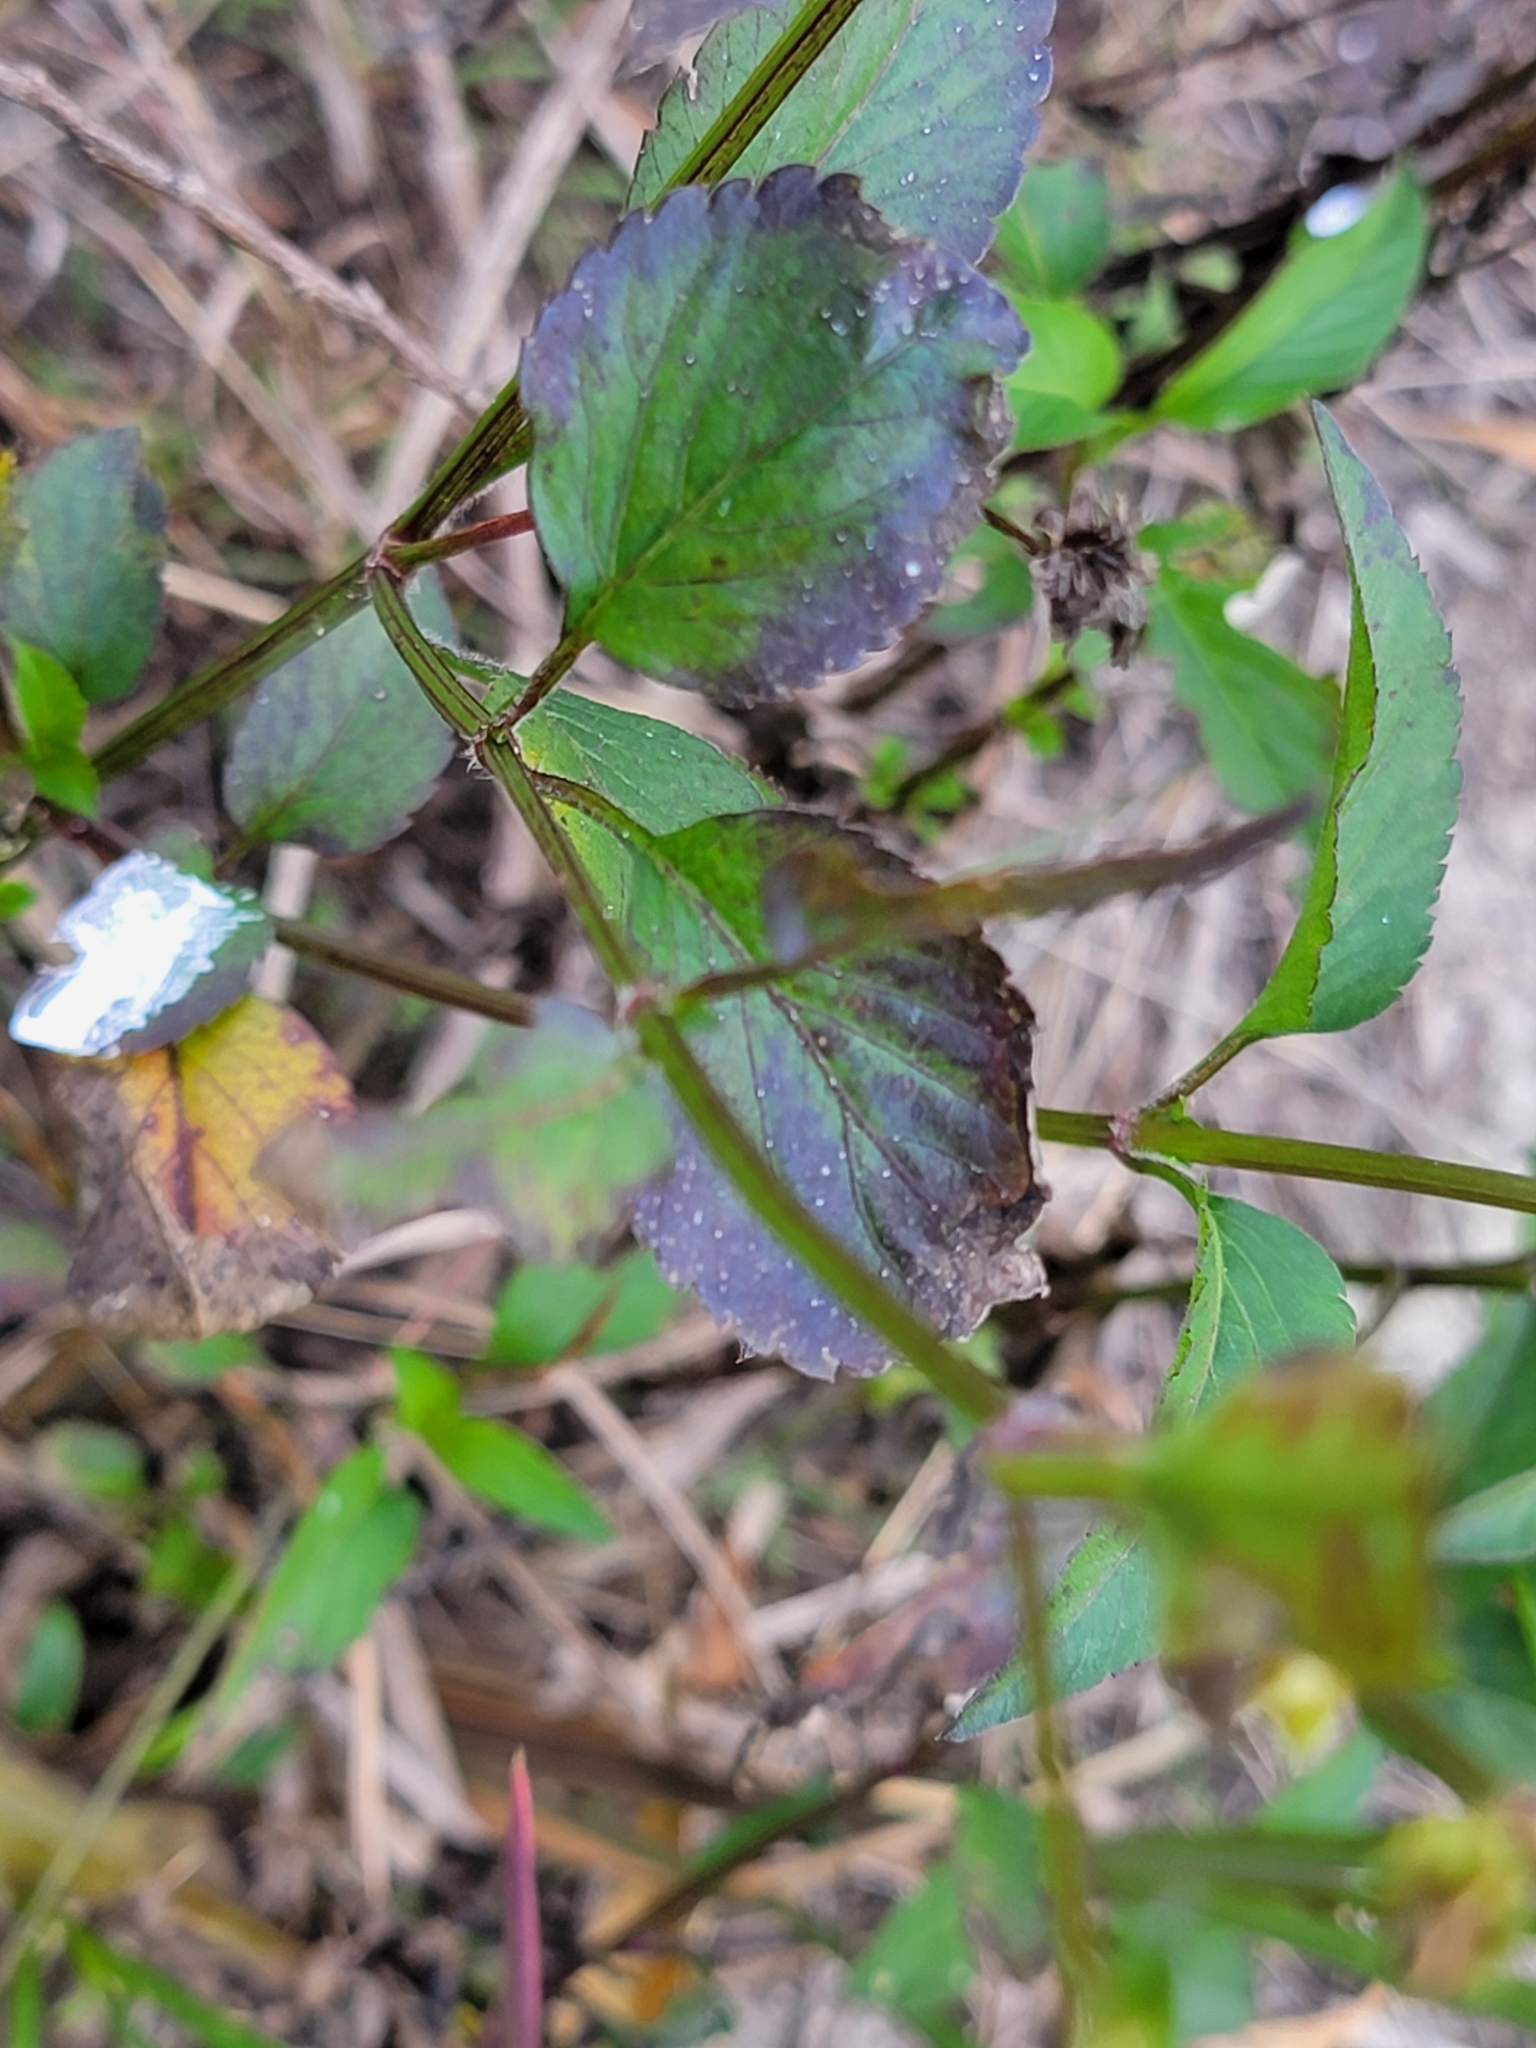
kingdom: Plantae
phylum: Tracheophyta
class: Magnoliopsida
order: Asterales
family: Asteraceae
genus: Bidens
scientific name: Bidens alba
